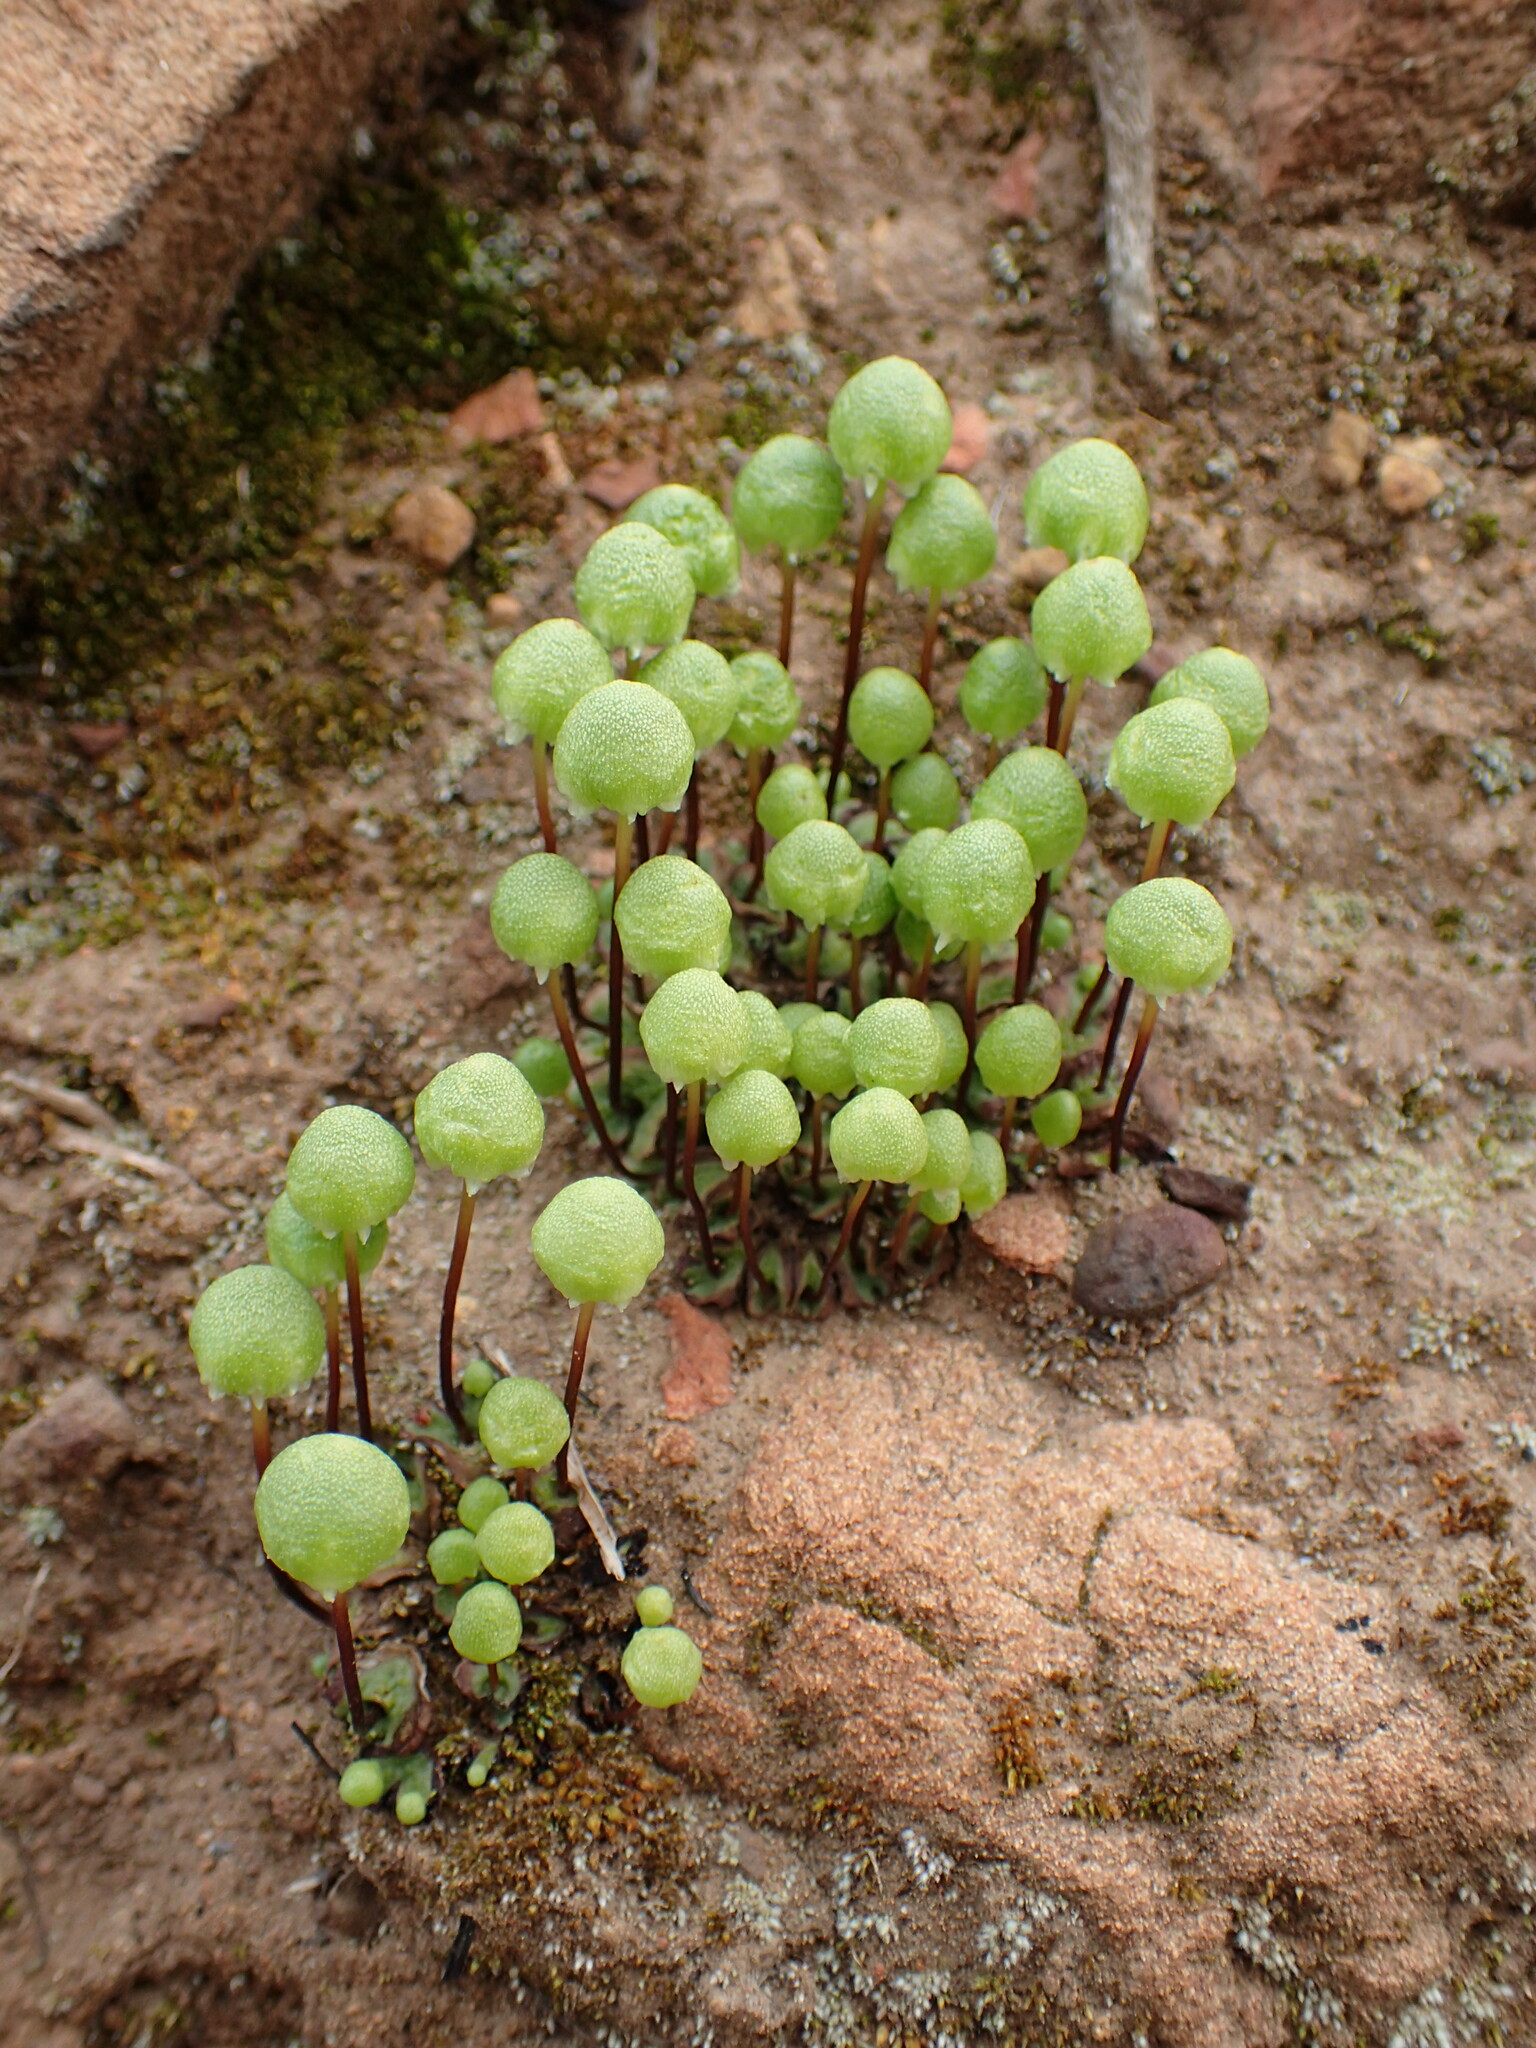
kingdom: Plantae
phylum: Marchantiophyta
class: Marchantiopsida
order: Marchantiales
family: Aytoniaceae
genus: Asterella
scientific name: Asterella palmeri
